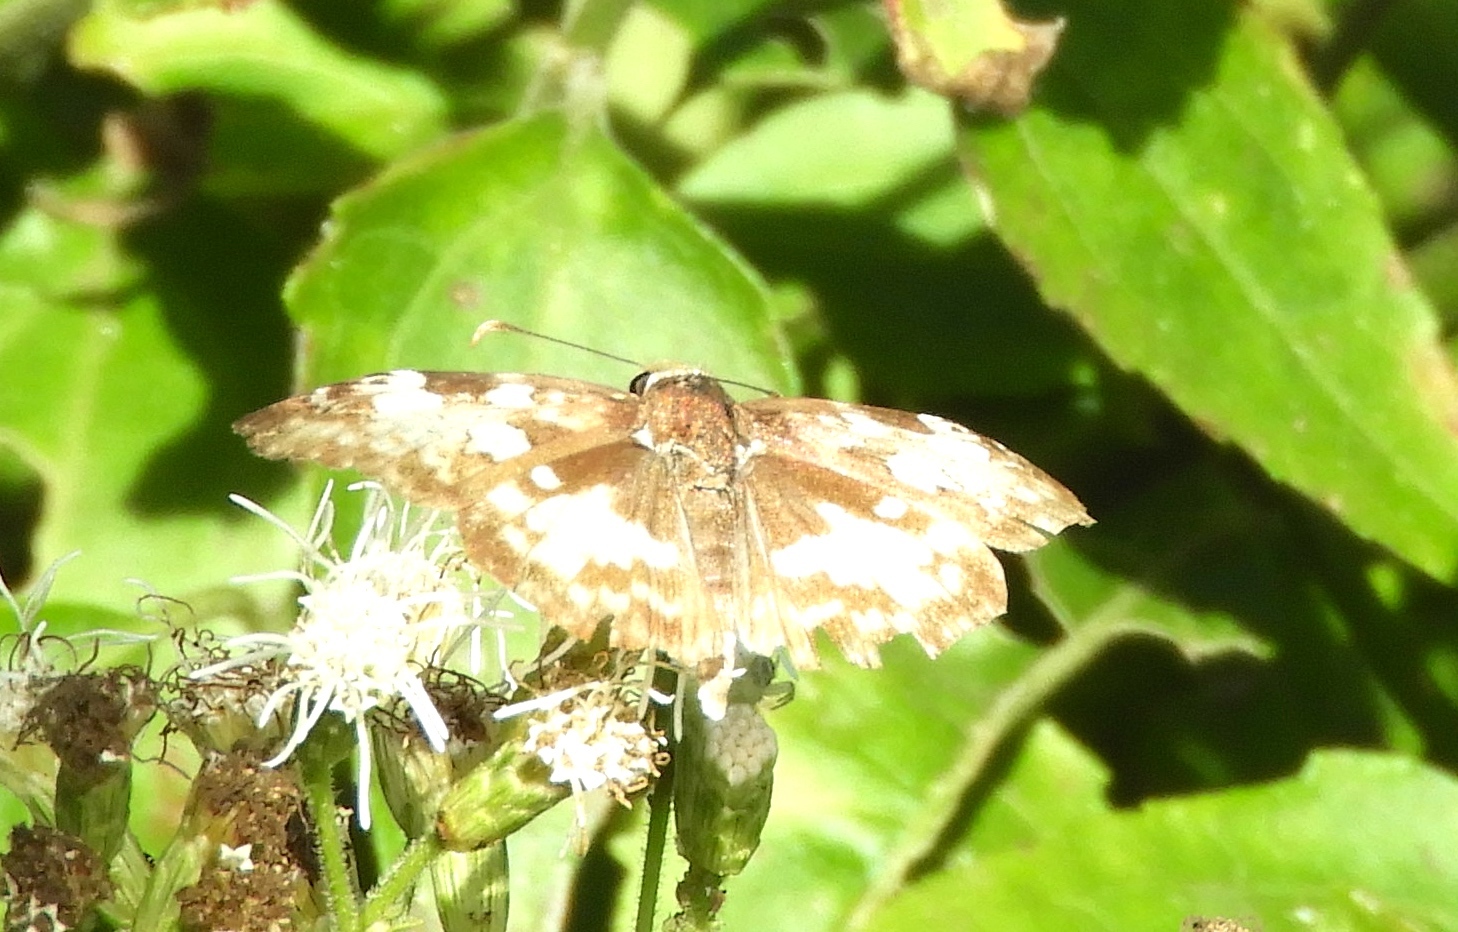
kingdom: Animalia
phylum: Arthropoda
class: Insecta
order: Lepidoptera
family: Hesperiidae
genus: Chiothion
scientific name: Chiothion georgina
